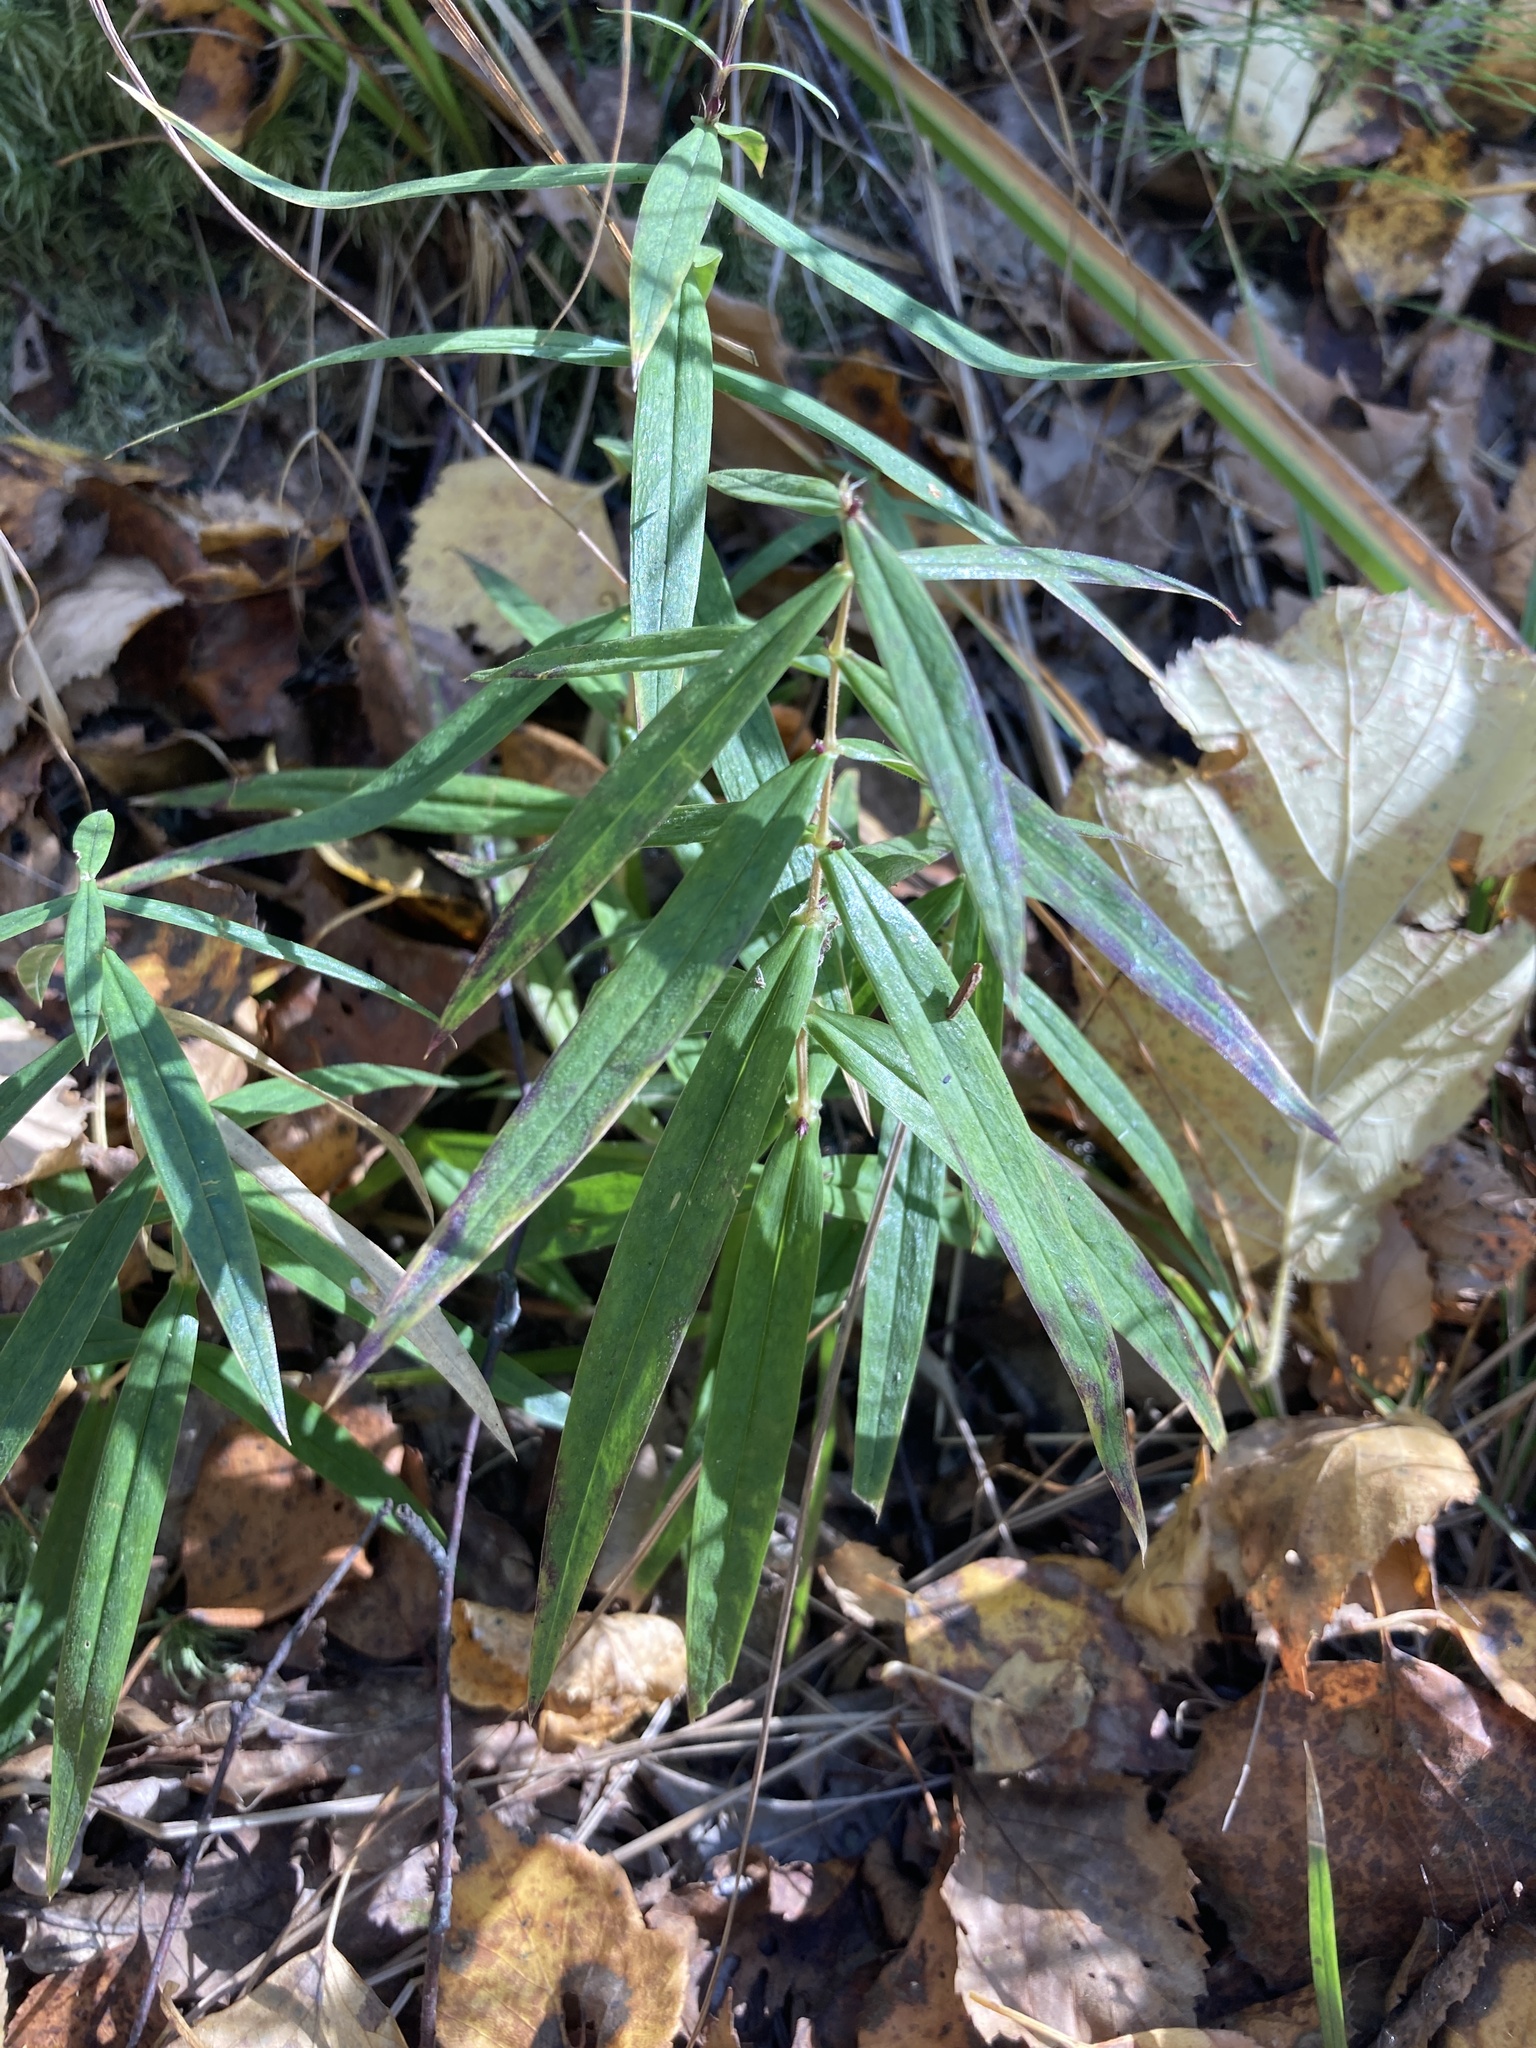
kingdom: Plantae
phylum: Tracheophyta
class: Magnoliopsida
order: Caryophyllales
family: Caryophyllaceae
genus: Rabelera
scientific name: Rabelera holostea
